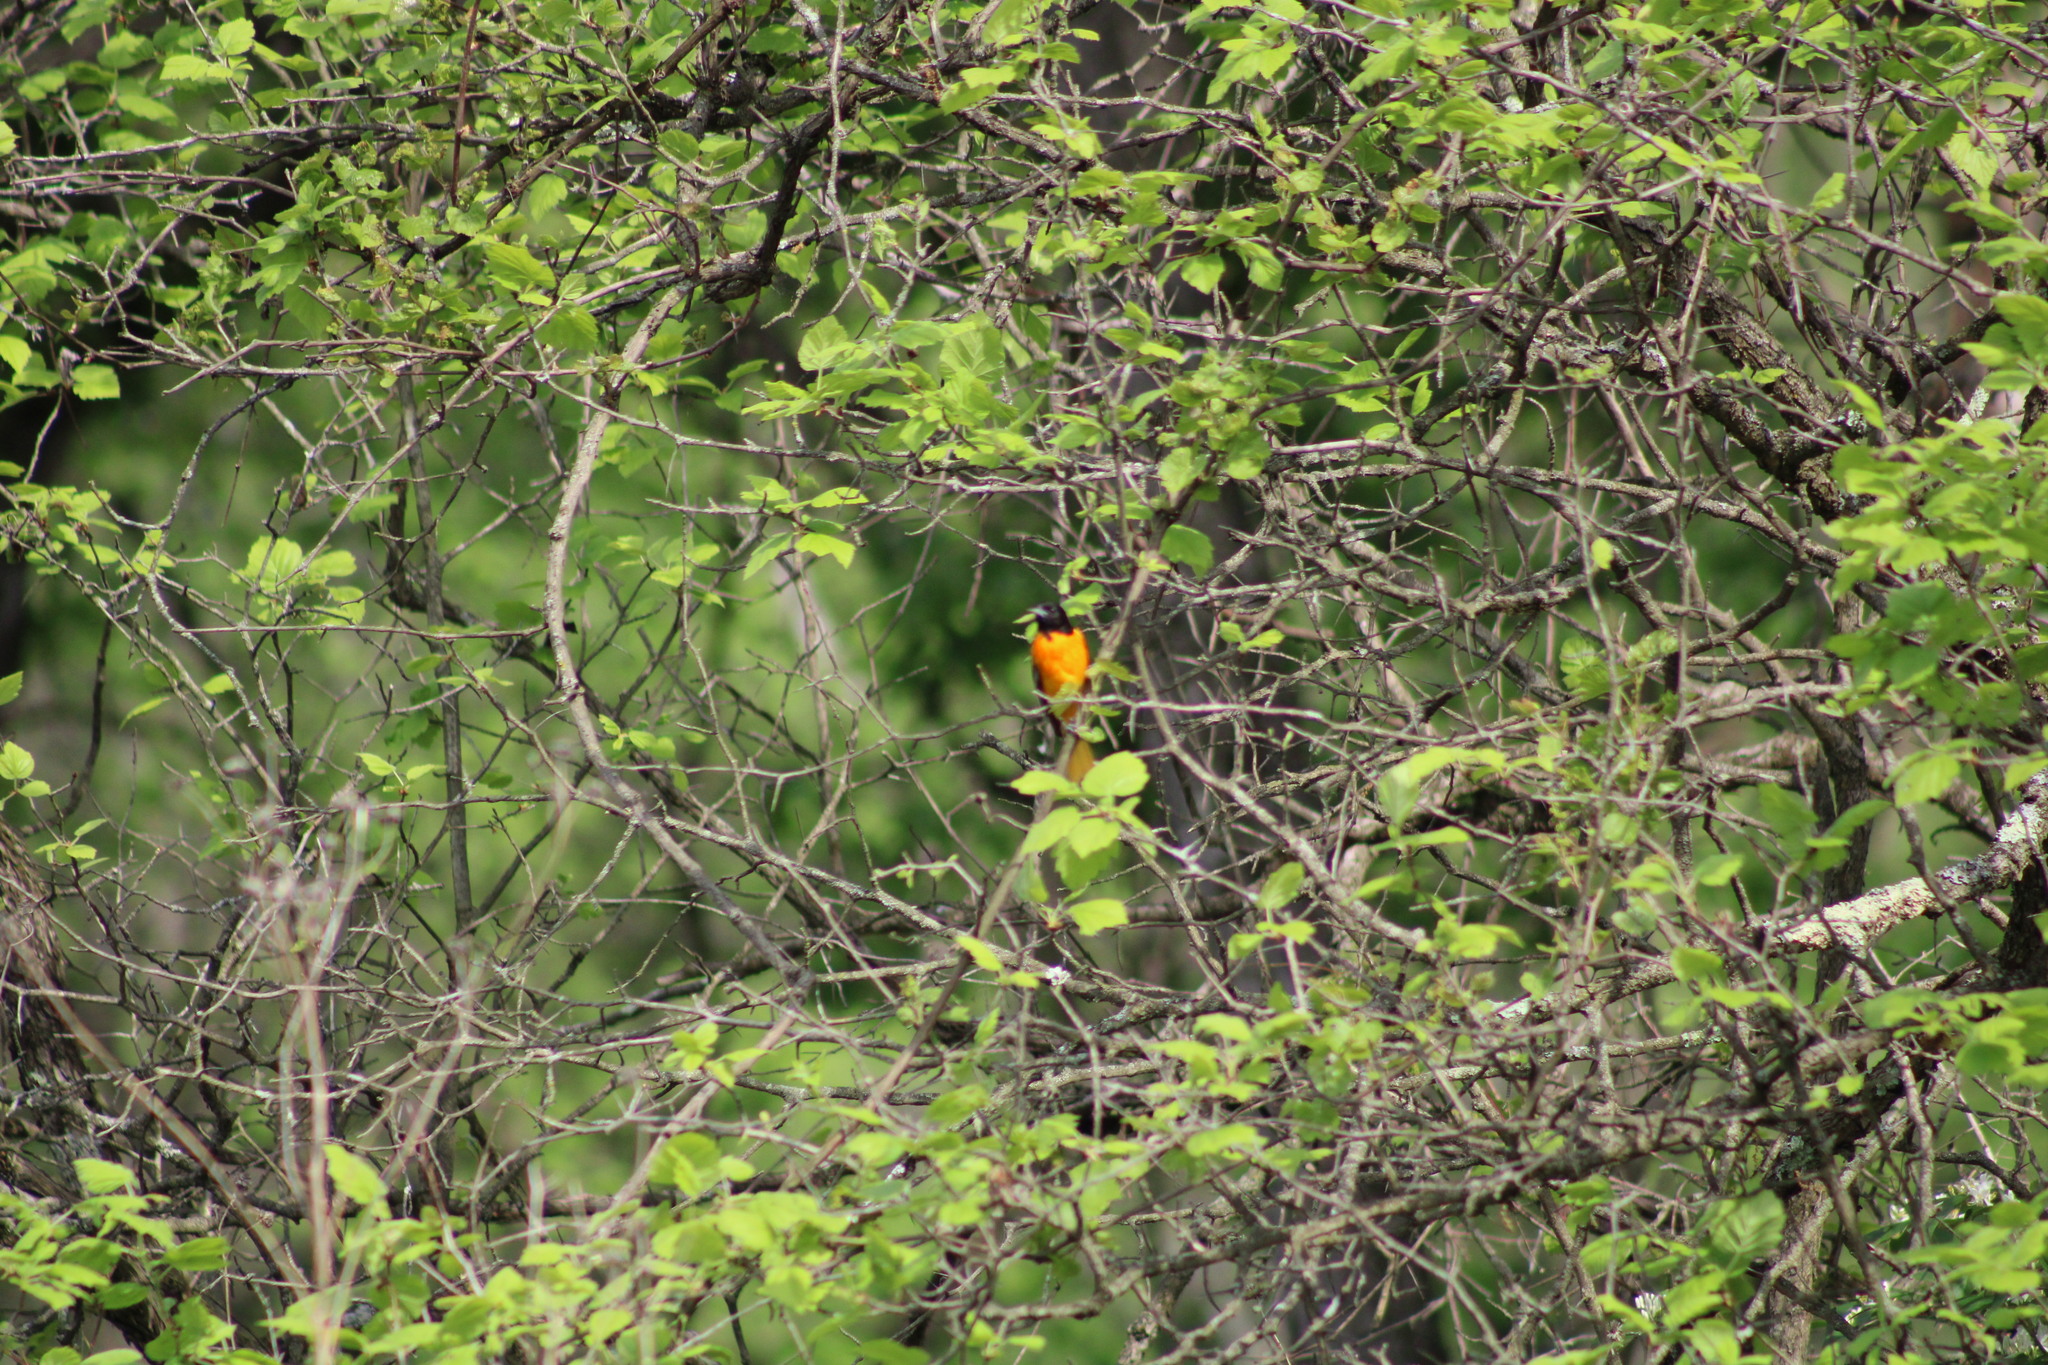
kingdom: Animalia
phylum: Chordata
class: Aves
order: Passeriformes
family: Icteridae
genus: Icterus
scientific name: Icterus galbula
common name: Baltimore oriole
